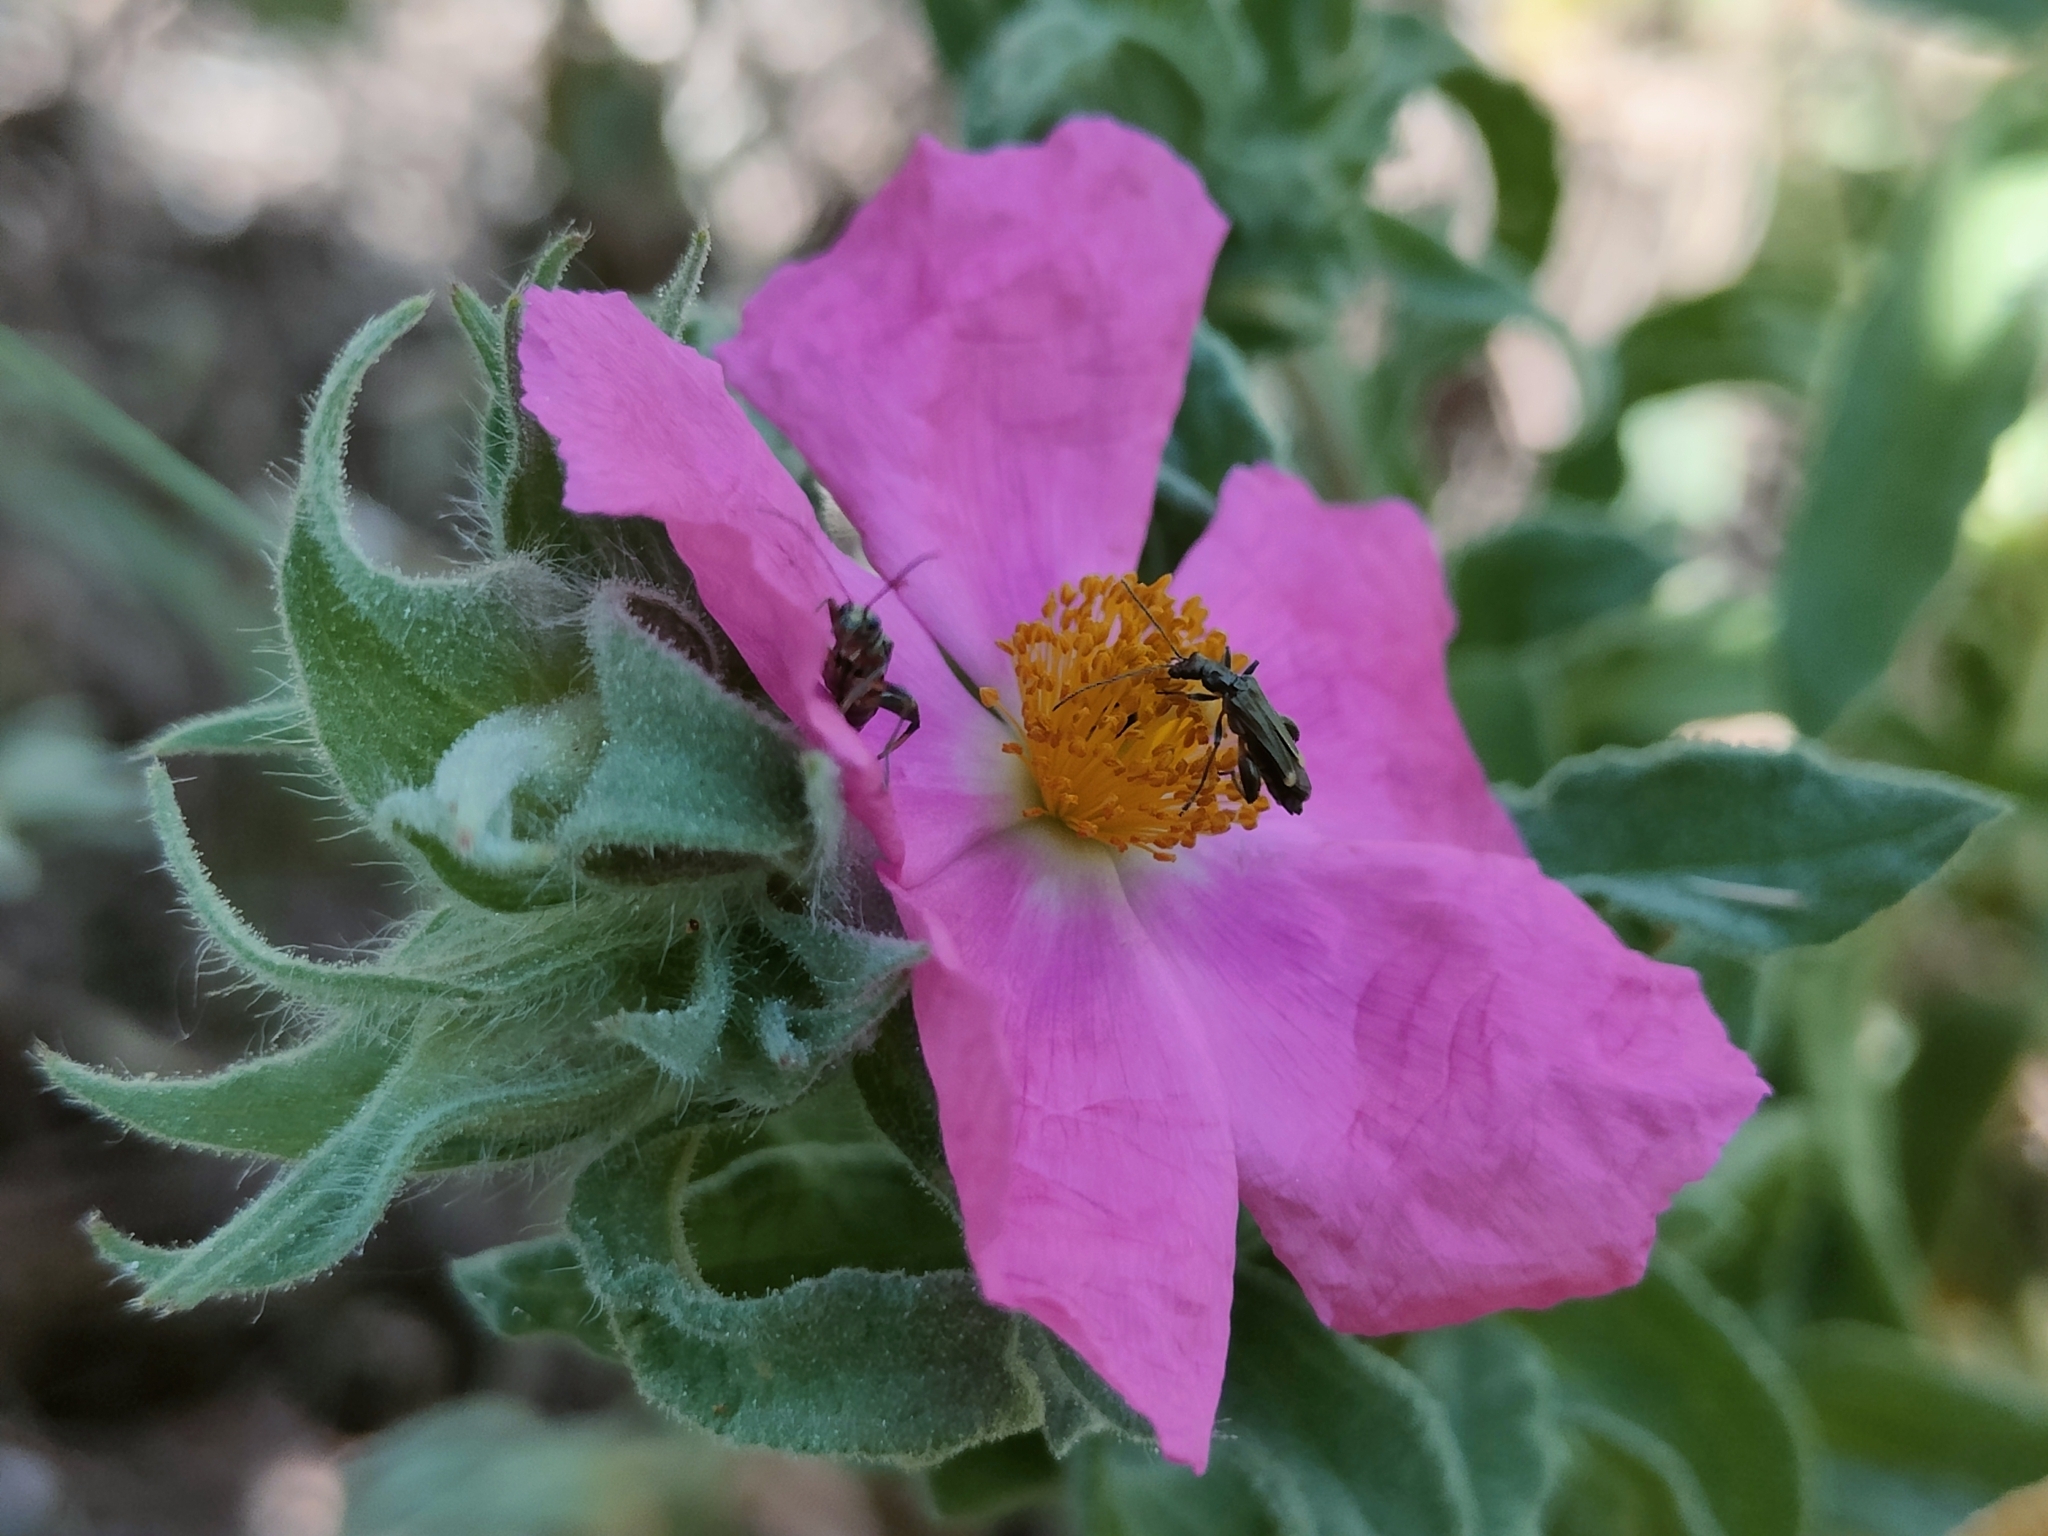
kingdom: Plantae
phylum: Tracheophyta
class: Magnoliopsida
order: Malvales
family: Cistaceae
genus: Cistus
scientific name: Cistus crispus
